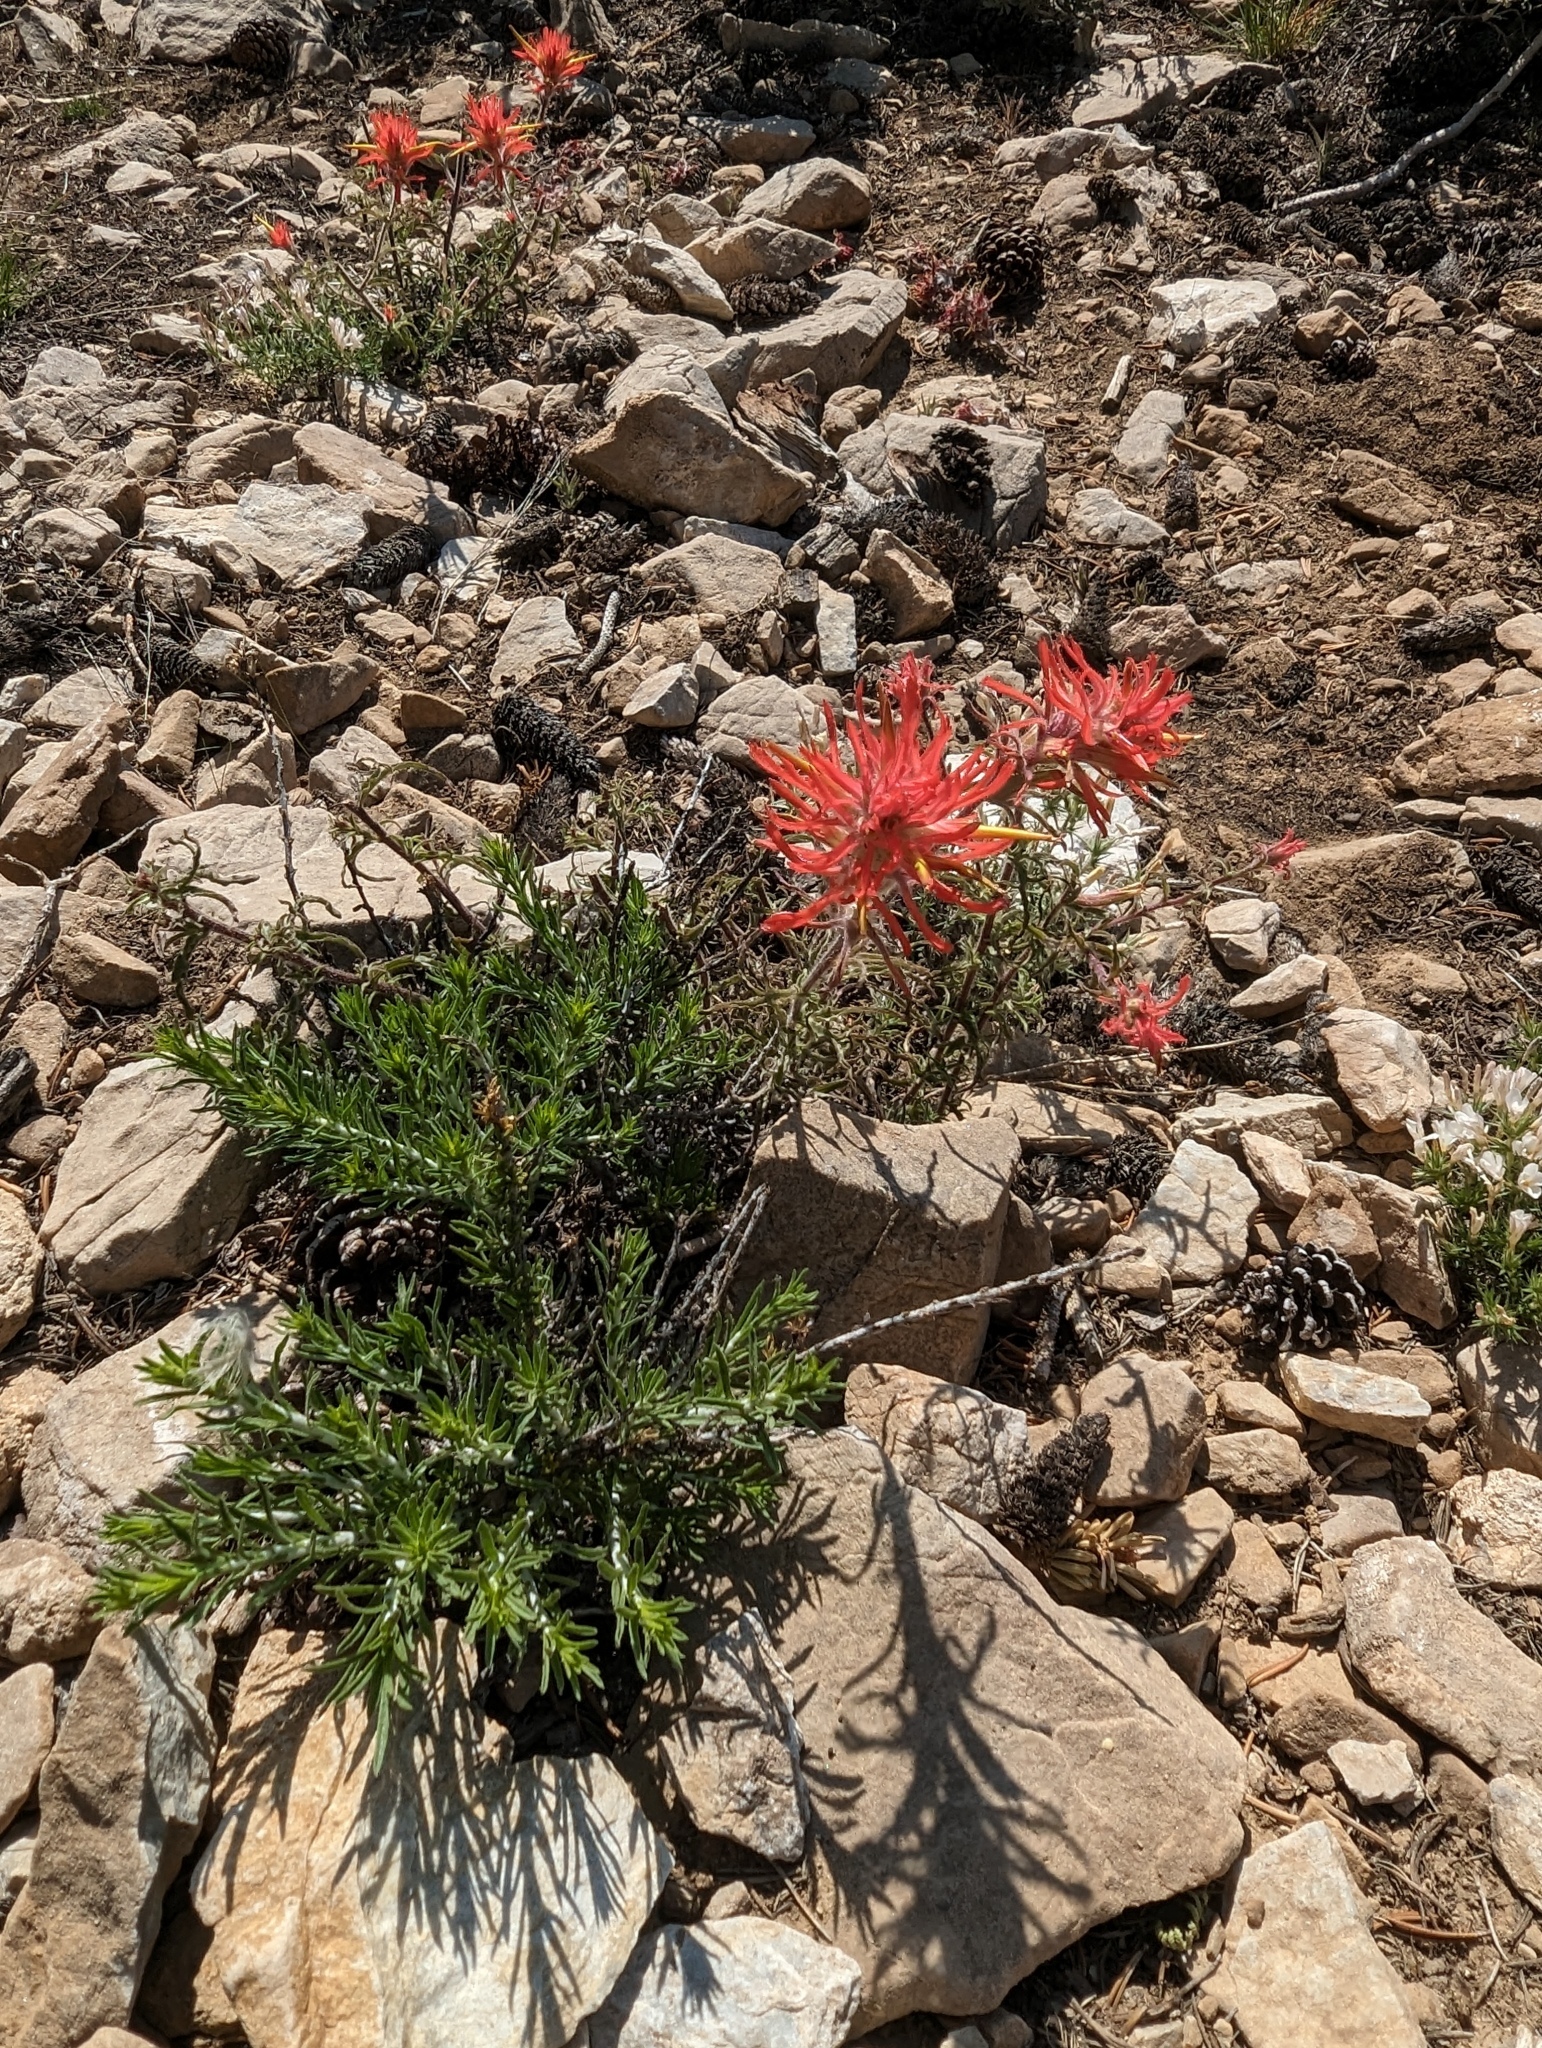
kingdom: Plantae
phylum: Tracheophyta
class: Magnoliopsida
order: Lamiales
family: Orobanchaceae
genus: Castilleja
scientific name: Castilleja applegatei
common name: Wavy-leaf paintbrush
